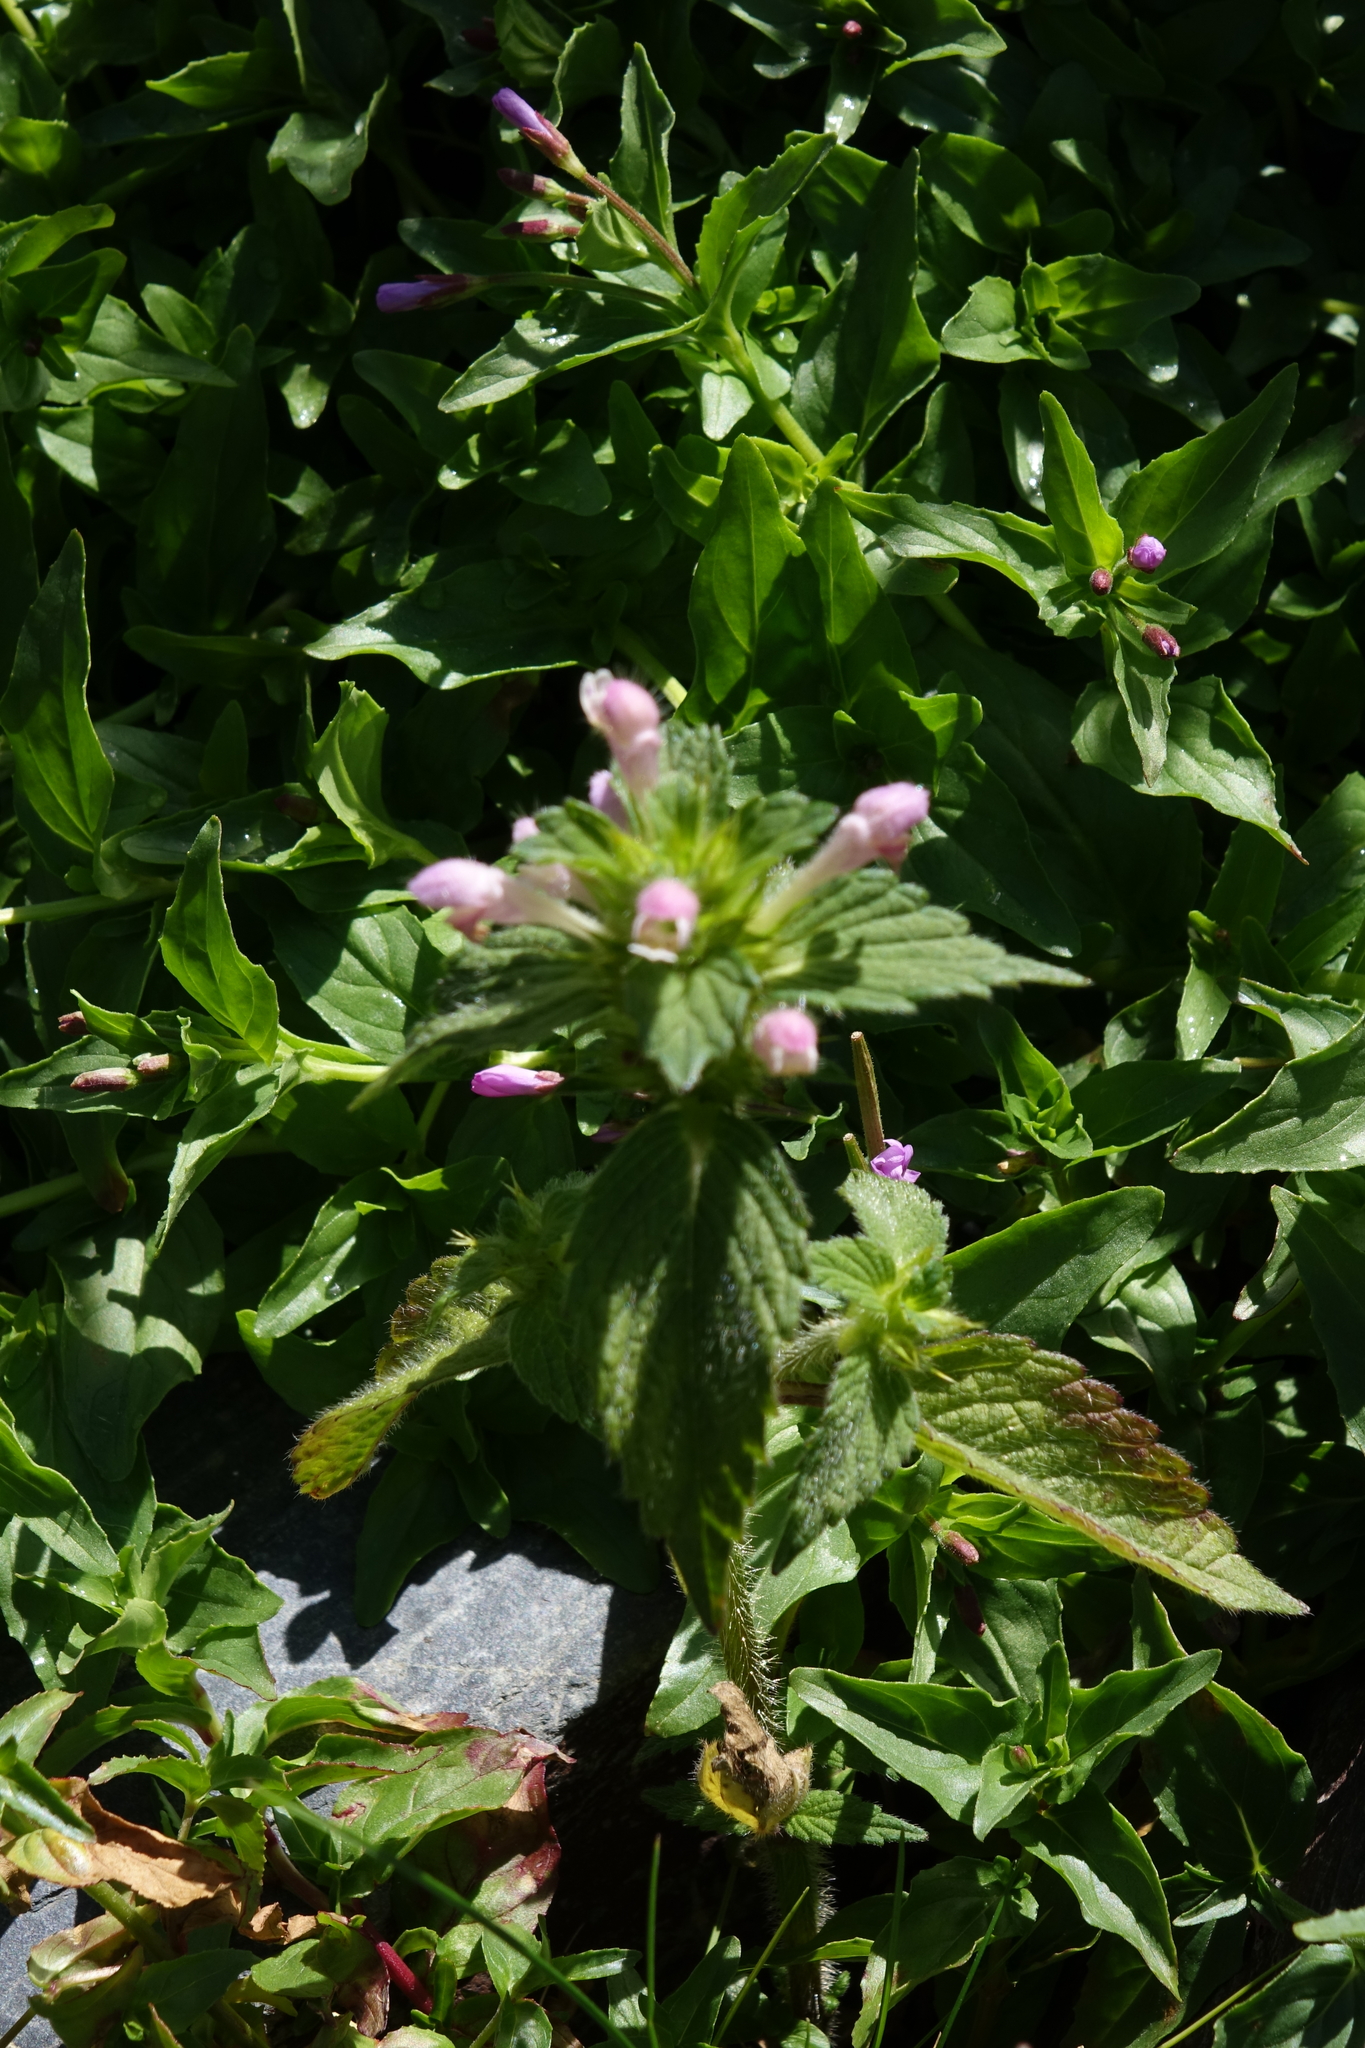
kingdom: Plantae
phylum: Tracheophyta
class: Magnoliopsida
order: Lamiales
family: Lamiaceae
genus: Galeopsis
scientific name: Galeopsis bifida
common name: Bifid hemp-nettle
